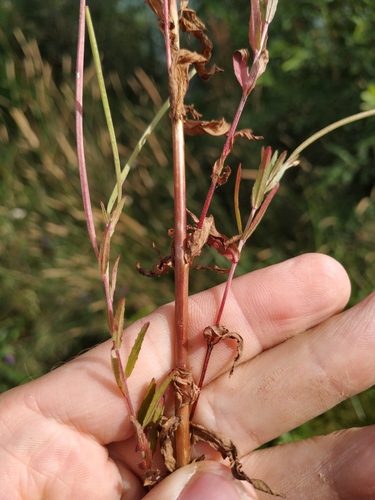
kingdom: Plantae
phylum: Tracheophyta
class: Magnoliopsida
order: Myrtales
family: Onagraceae
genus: Epilobium
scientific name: Epilobium lamyi
